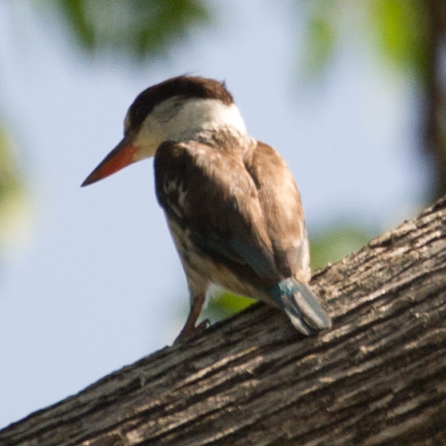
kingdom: Animalia
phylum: Chordata
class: Aves
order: Coraciiformes
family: Alcedinidae
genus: Halcyon
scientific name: Halcyon chelicuti
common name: Striped kingfisher
